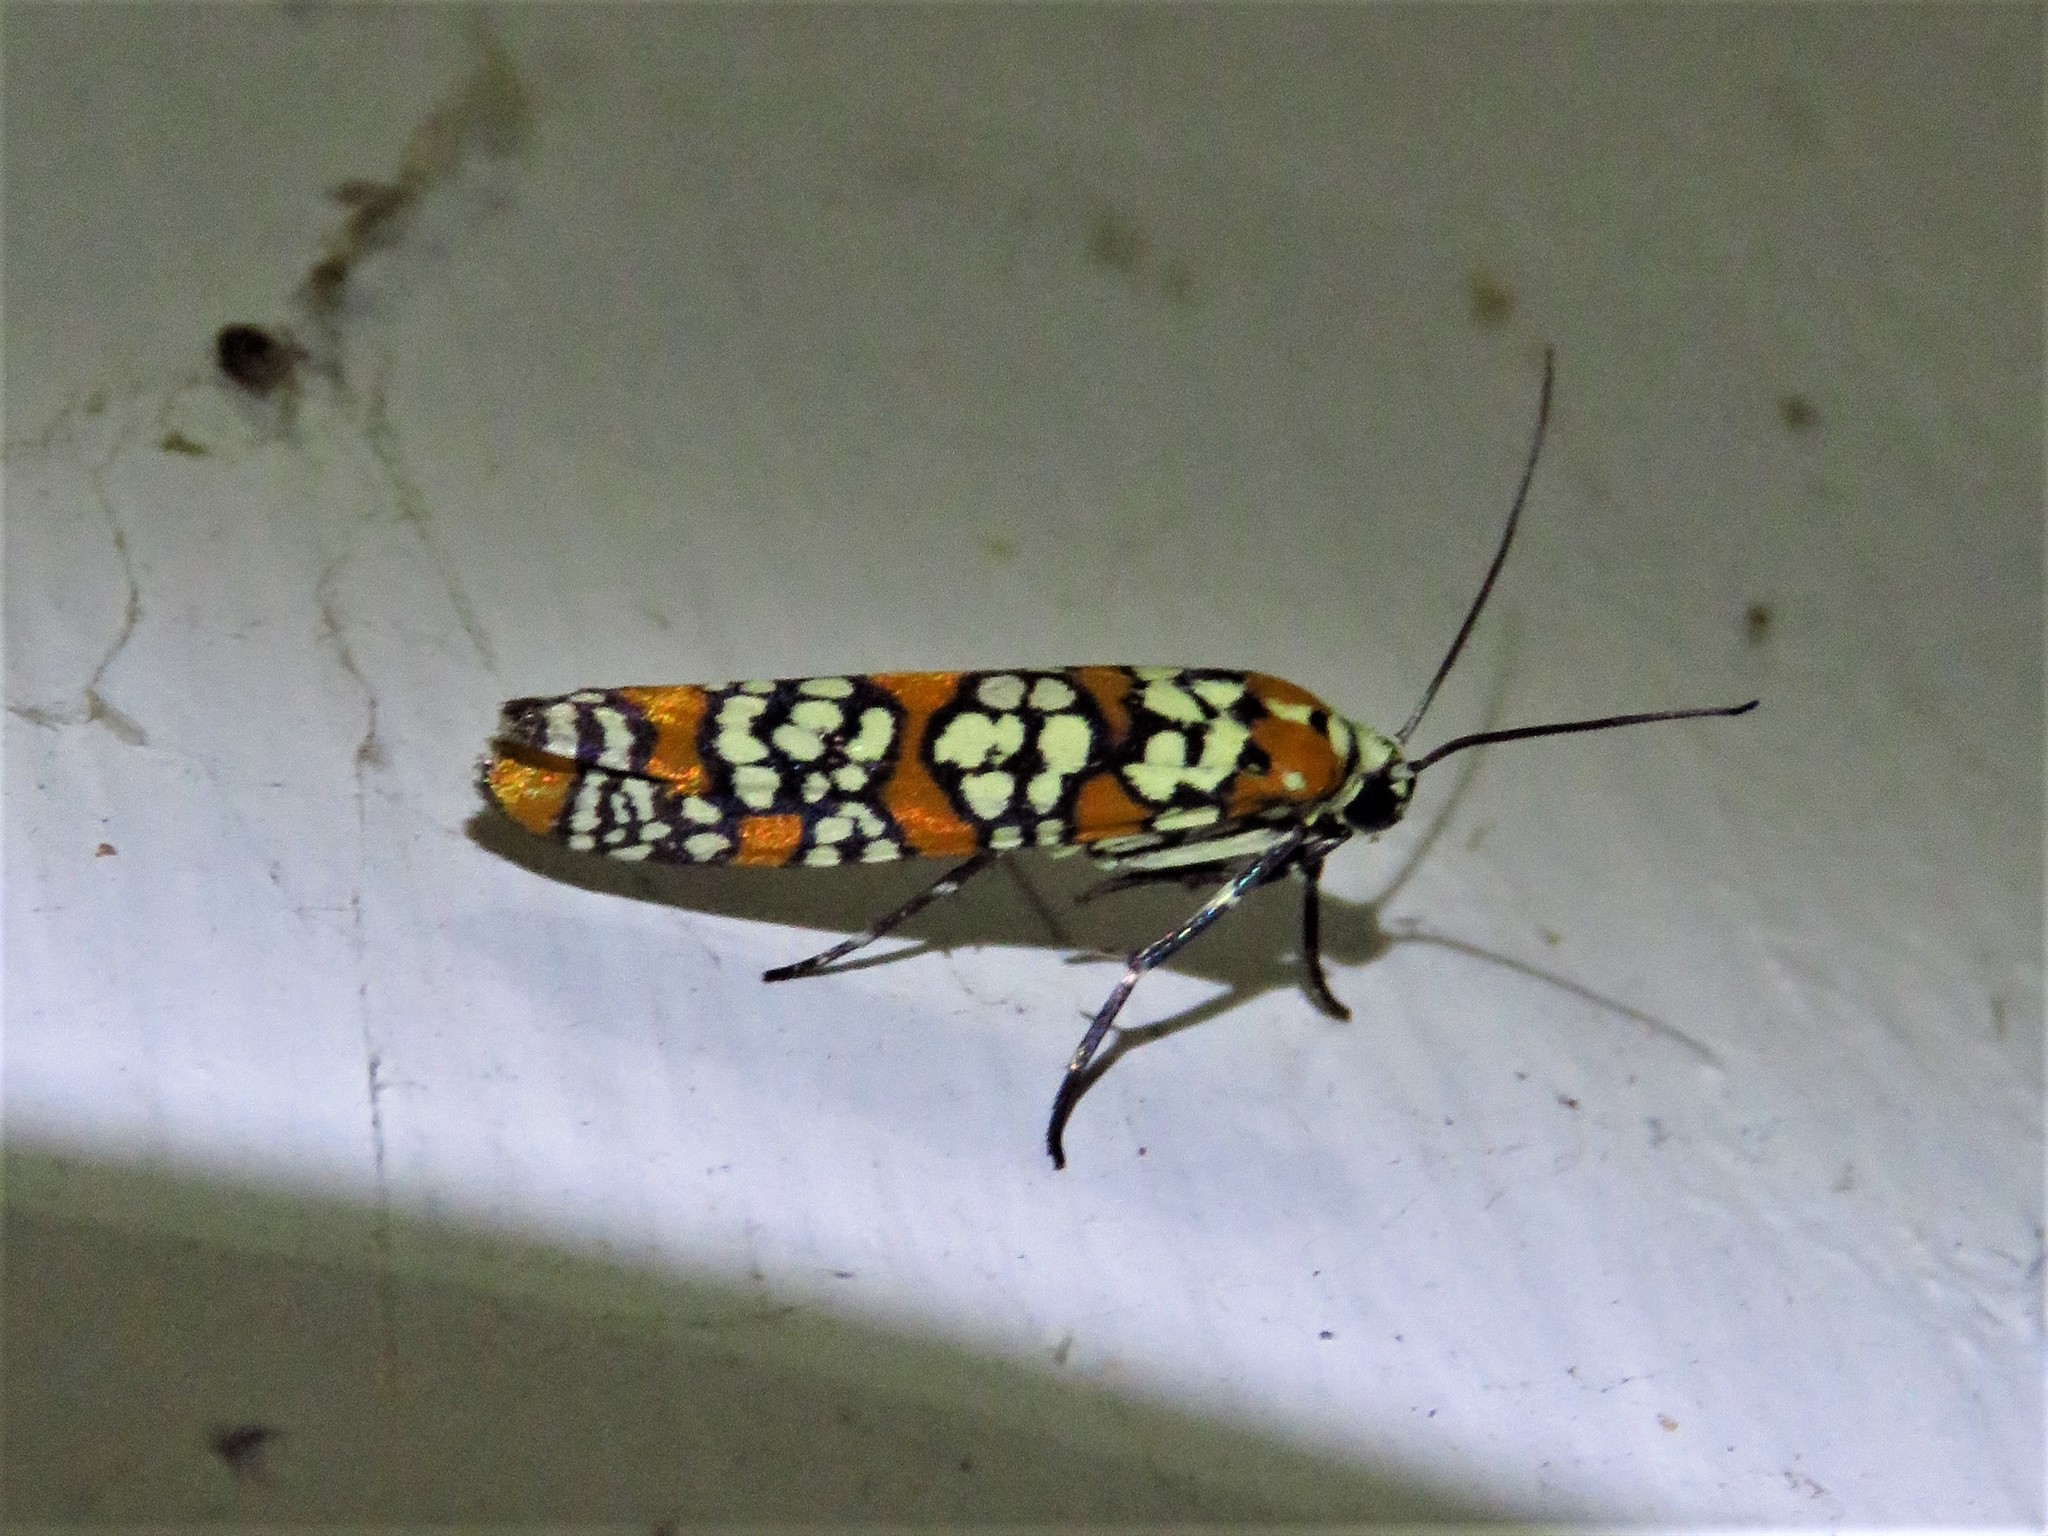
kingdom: Animalia
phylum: Arthropoda
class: Insecta
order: Lepidoptera
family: Attevidae
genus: Atteva
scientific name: Atteva punctella
